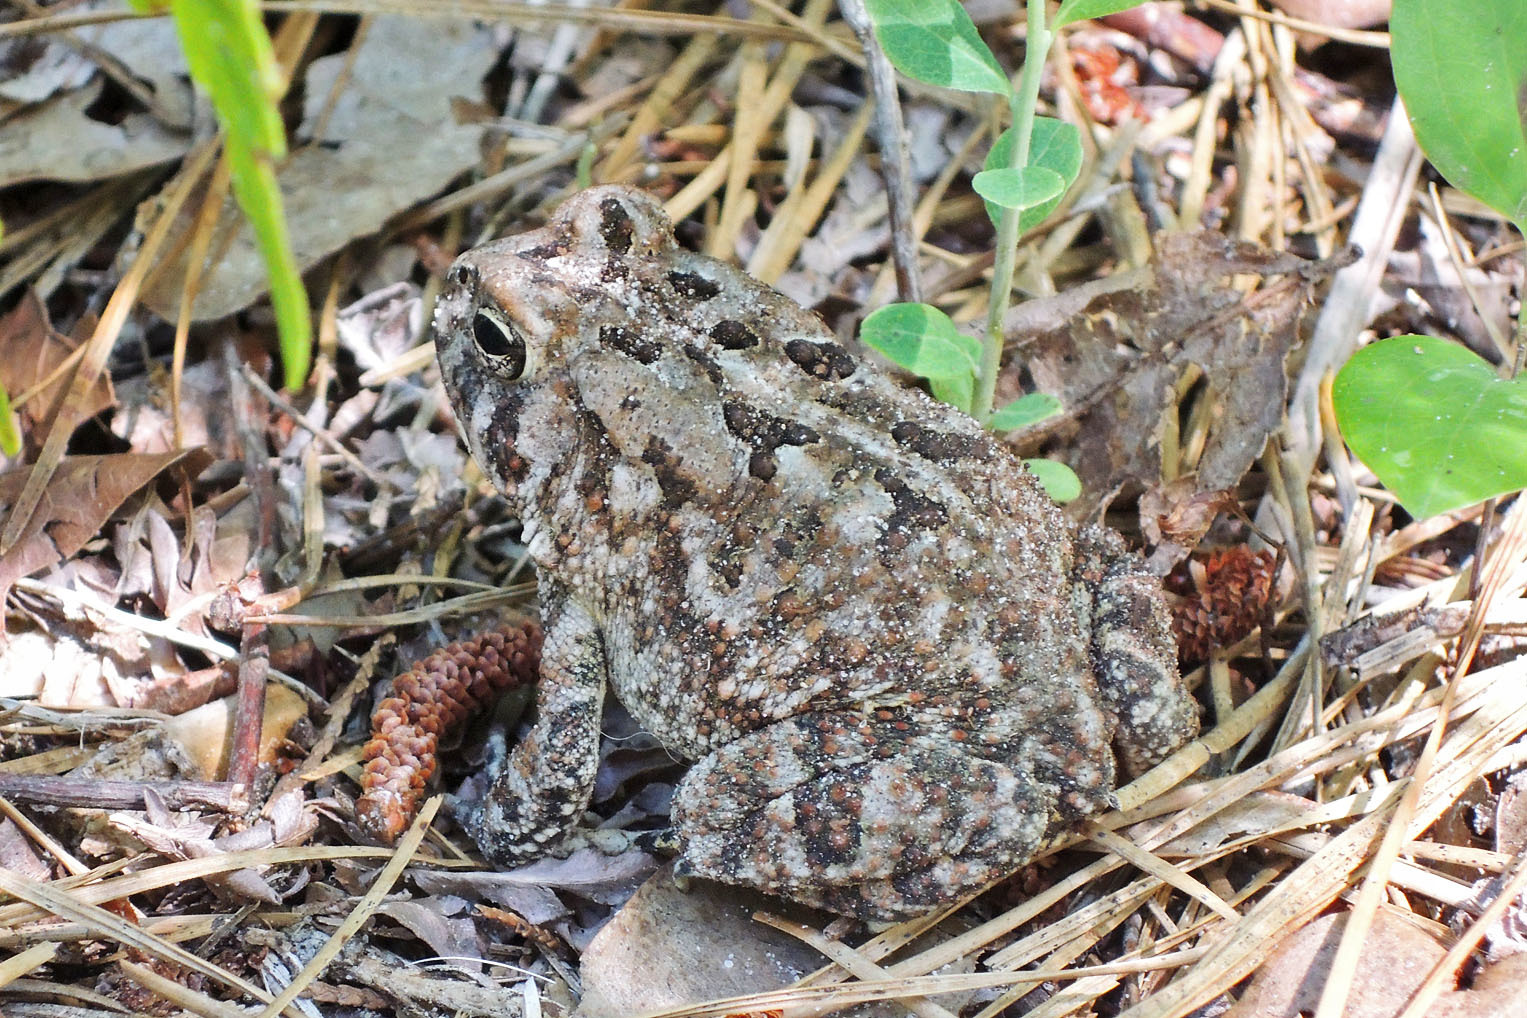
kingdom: Animalia
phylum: Chordata
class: Amphibia
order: Anura
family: Bufonidae
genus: Anaxyrus
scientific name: Anaxyrus fowleri
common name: Fowler's toad
